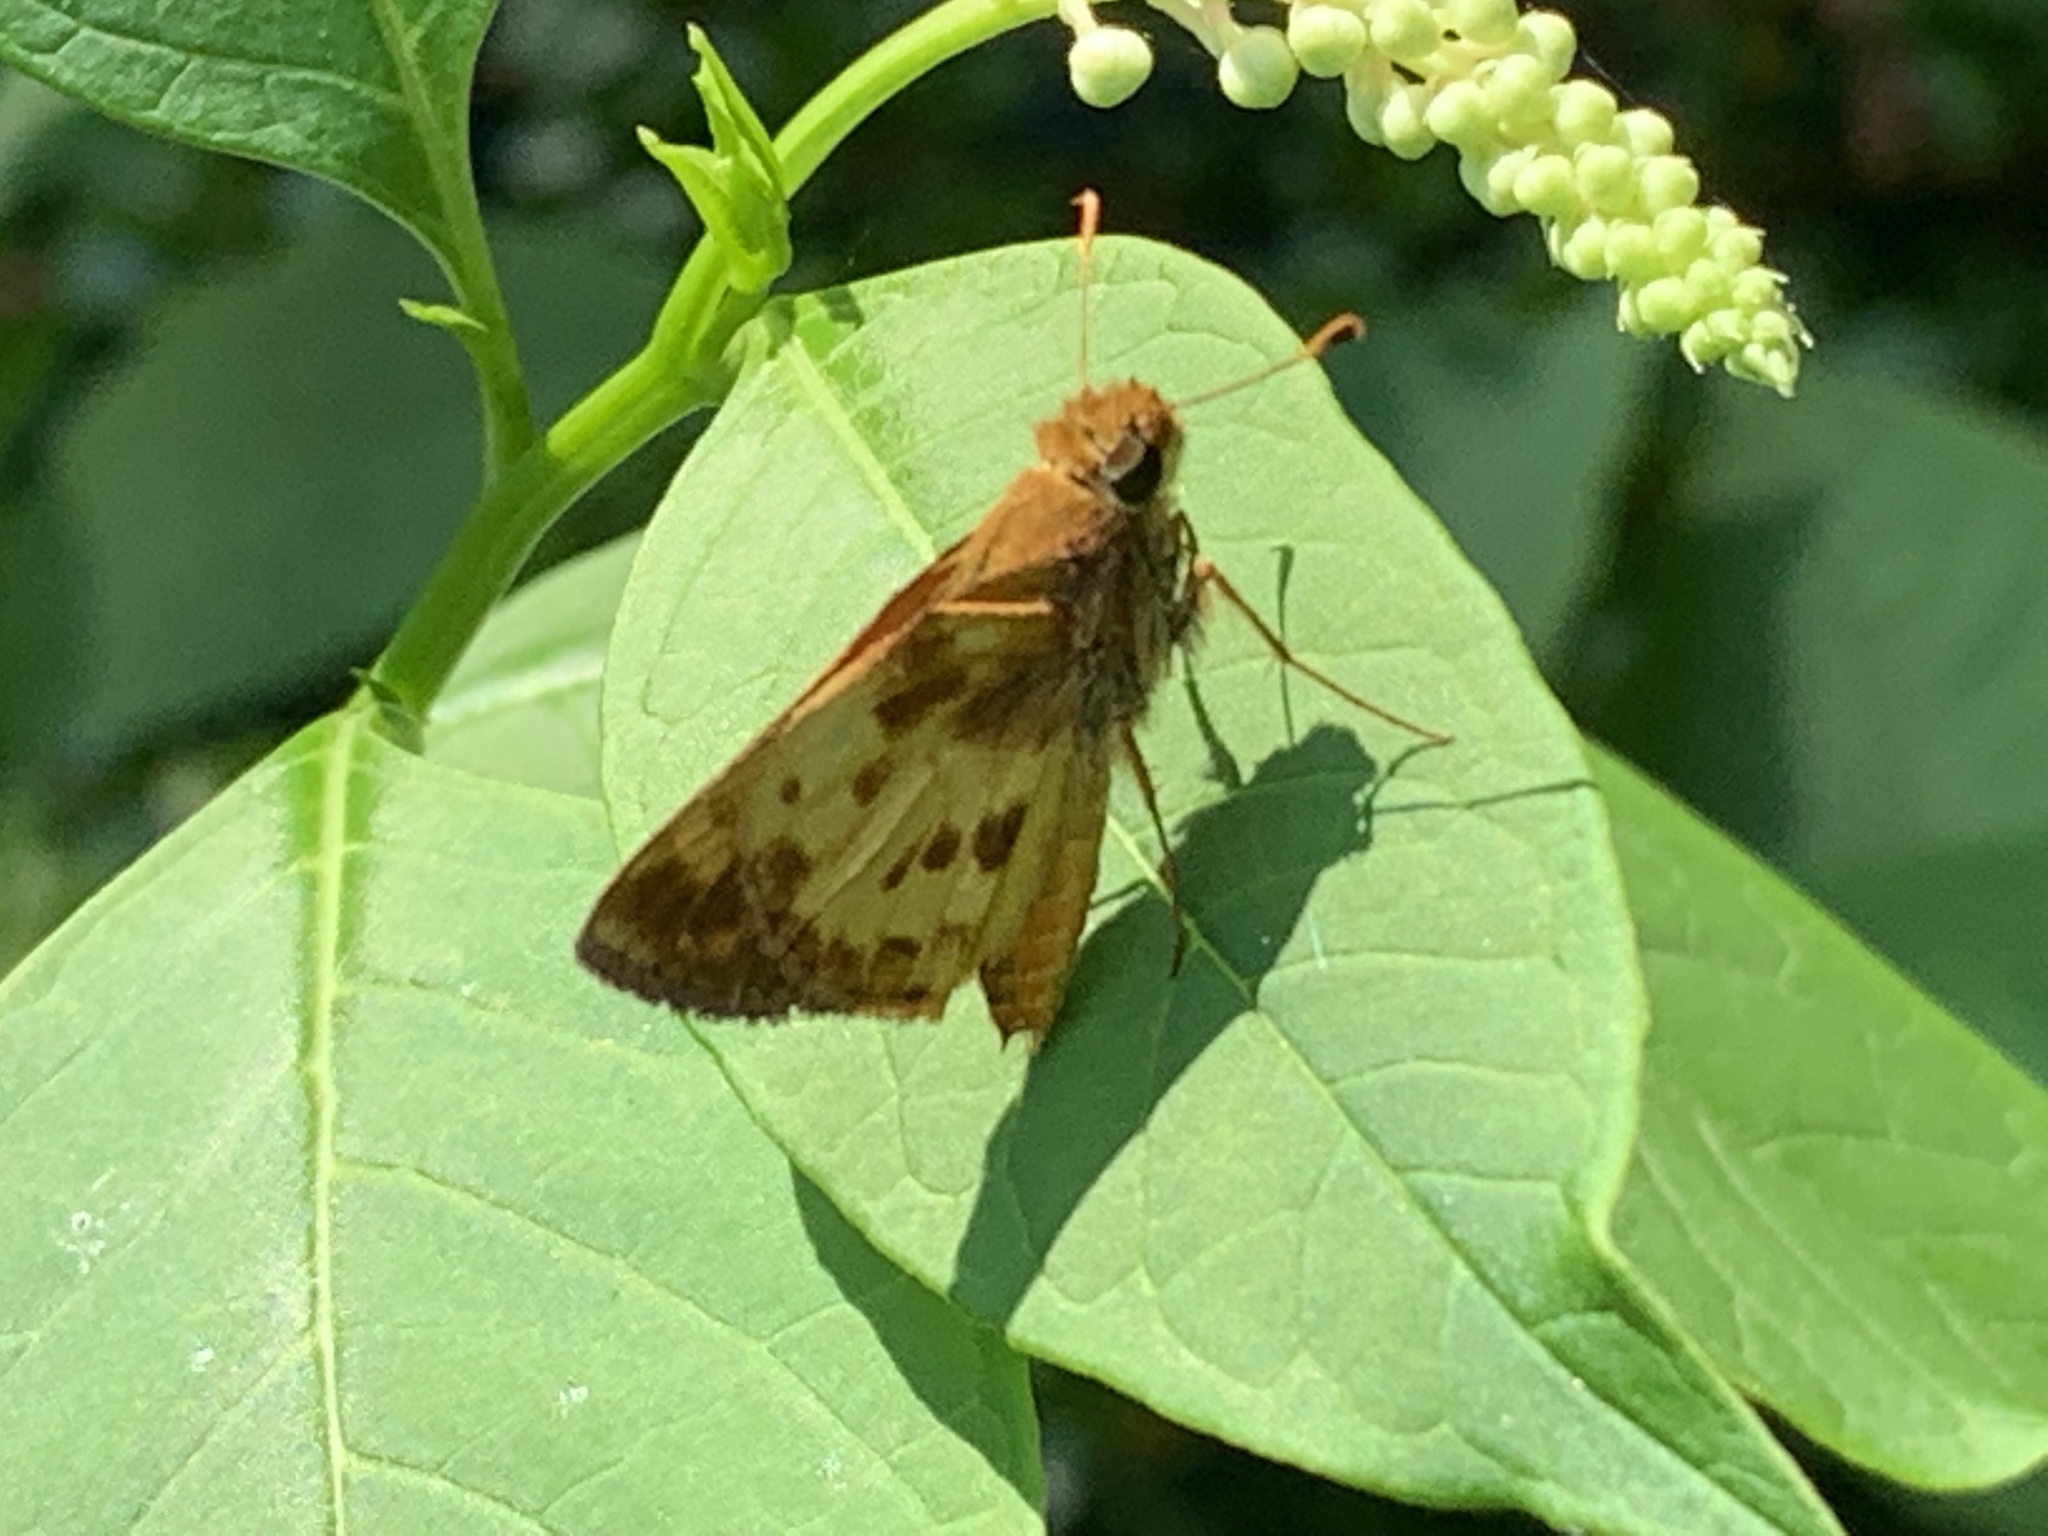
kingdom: Animalia
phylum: Arthropoda
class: Insecta
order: Lepidoptera
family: Hesperiidae
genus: Lon
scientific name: Lon zabulon
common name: Zabulon skipper
